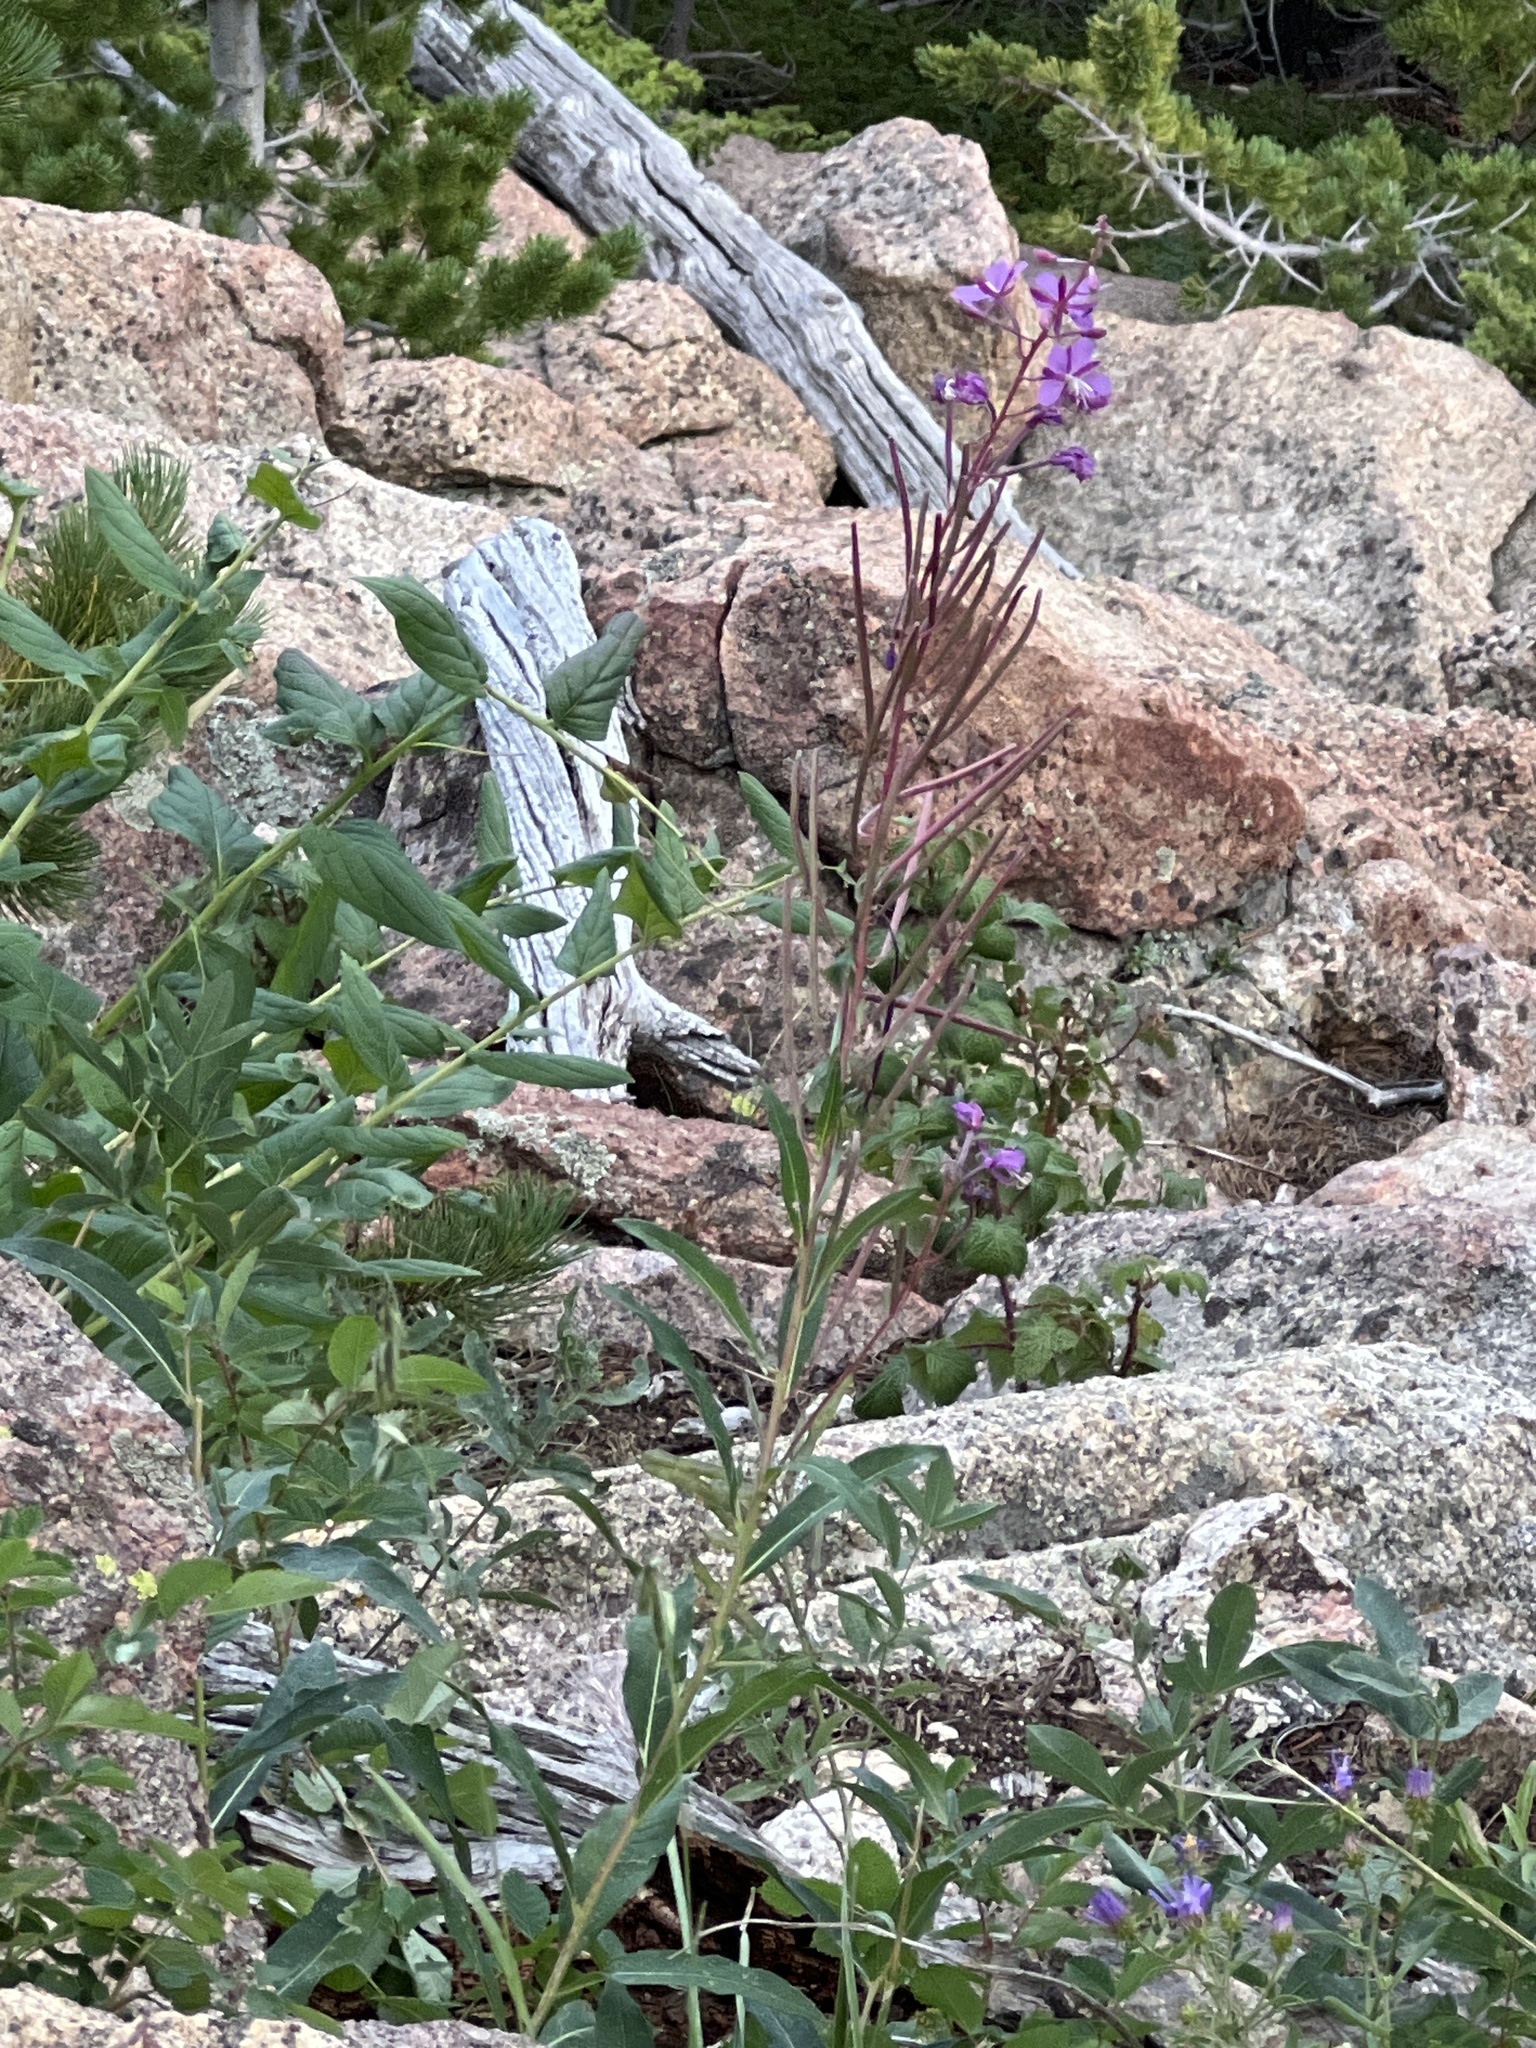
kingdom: Plantae
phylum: Tracheophyta
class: Magnoliopsida
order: Myrtales
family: Onagraceae
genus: Chamaenerion
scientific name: Chamaenerion angustifolium
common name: Fireweed
